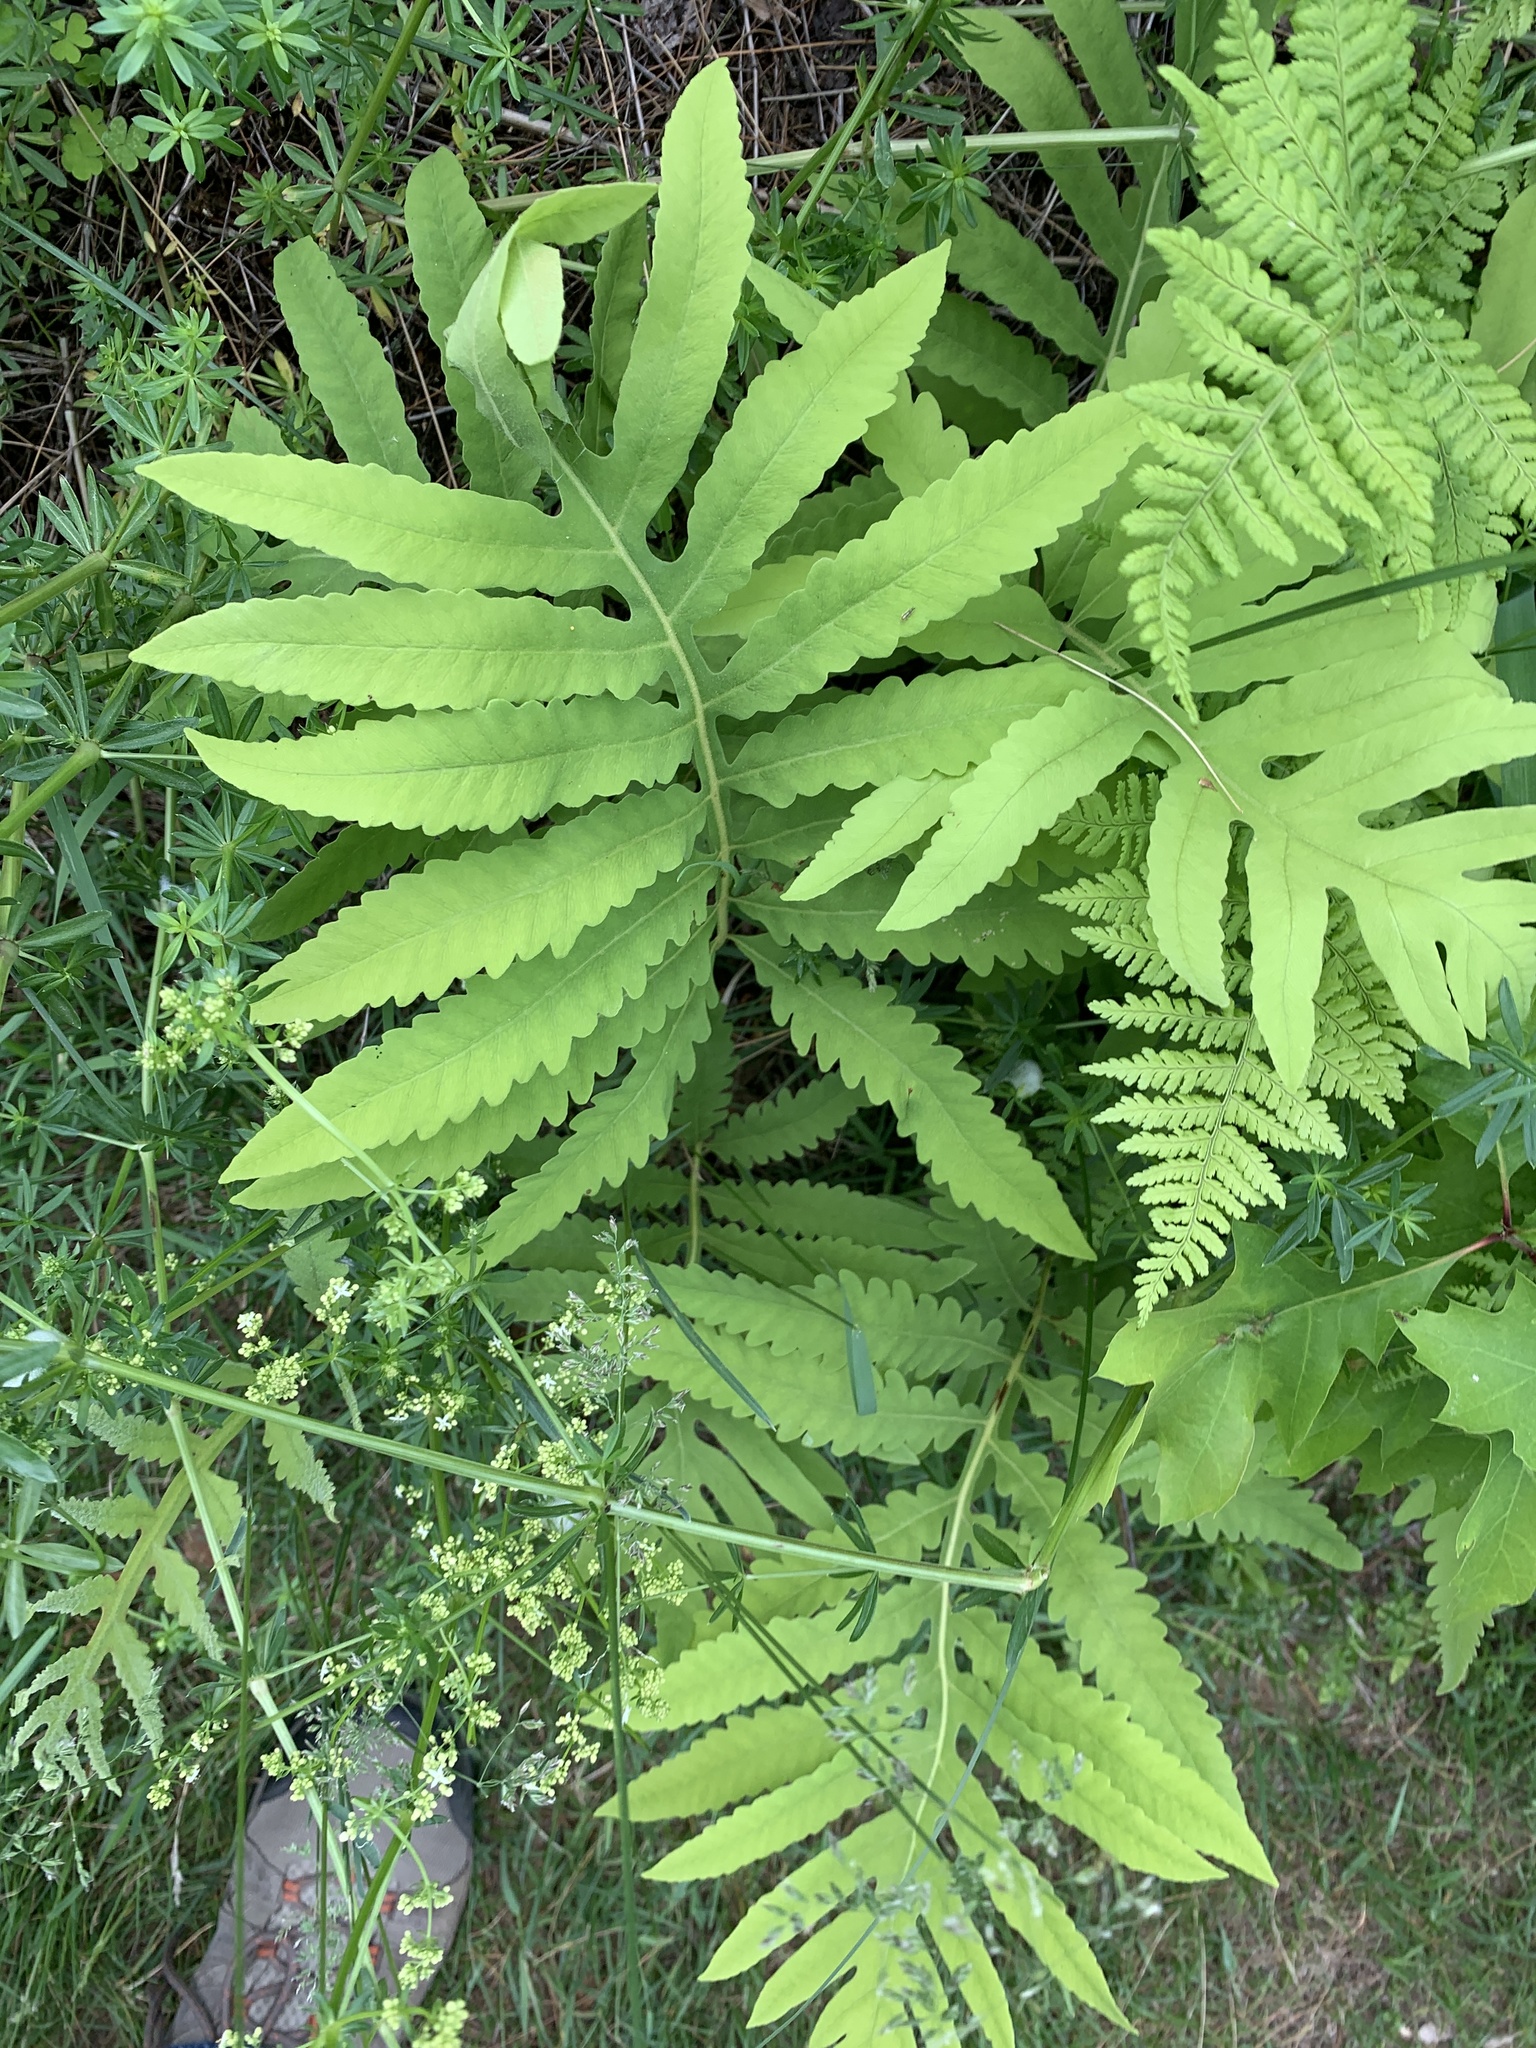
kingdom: Plantae
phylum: Tracheophyta
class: Polypodiopsida
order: Polypodiales
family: Onocleaceae
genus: Onoclea
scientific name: Onoclea sensibilis
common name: Sensitive fern
